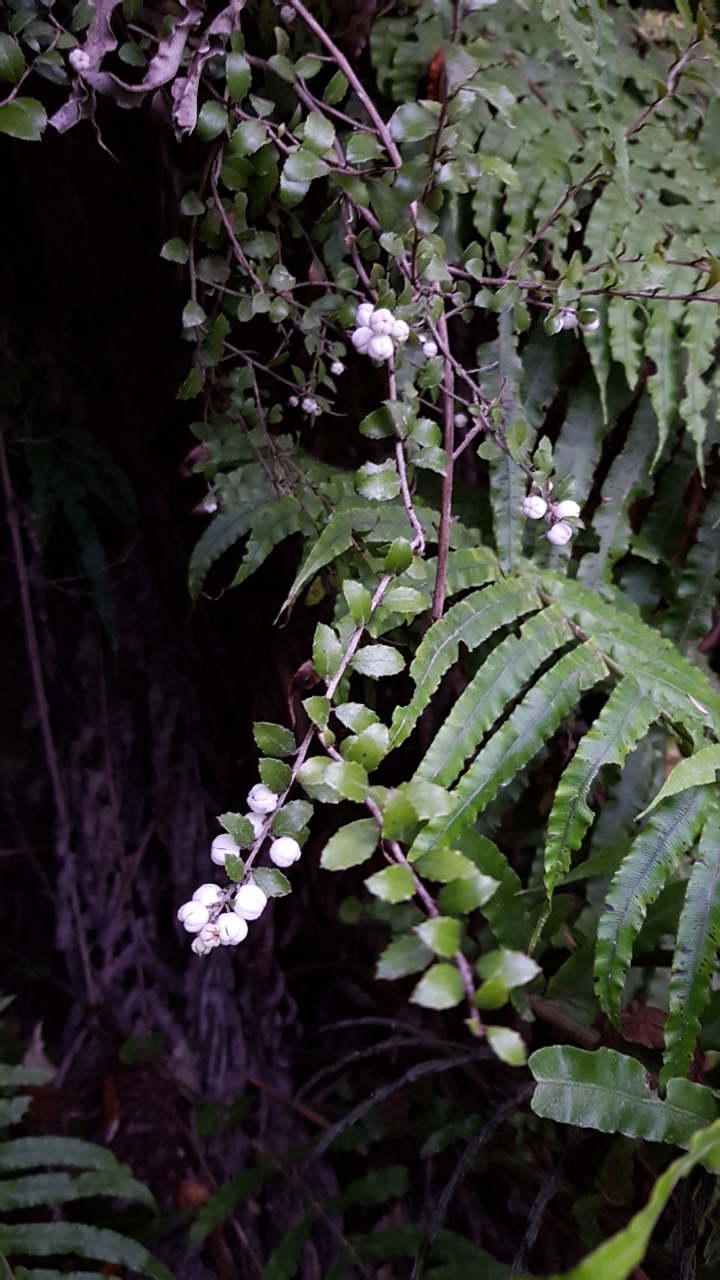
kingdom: Plantae
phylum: Tracheophyta
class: Magnoliopsida
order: Ericales
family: Ericaceae
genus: Gaultheria
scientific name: Gaultheria antipoda
